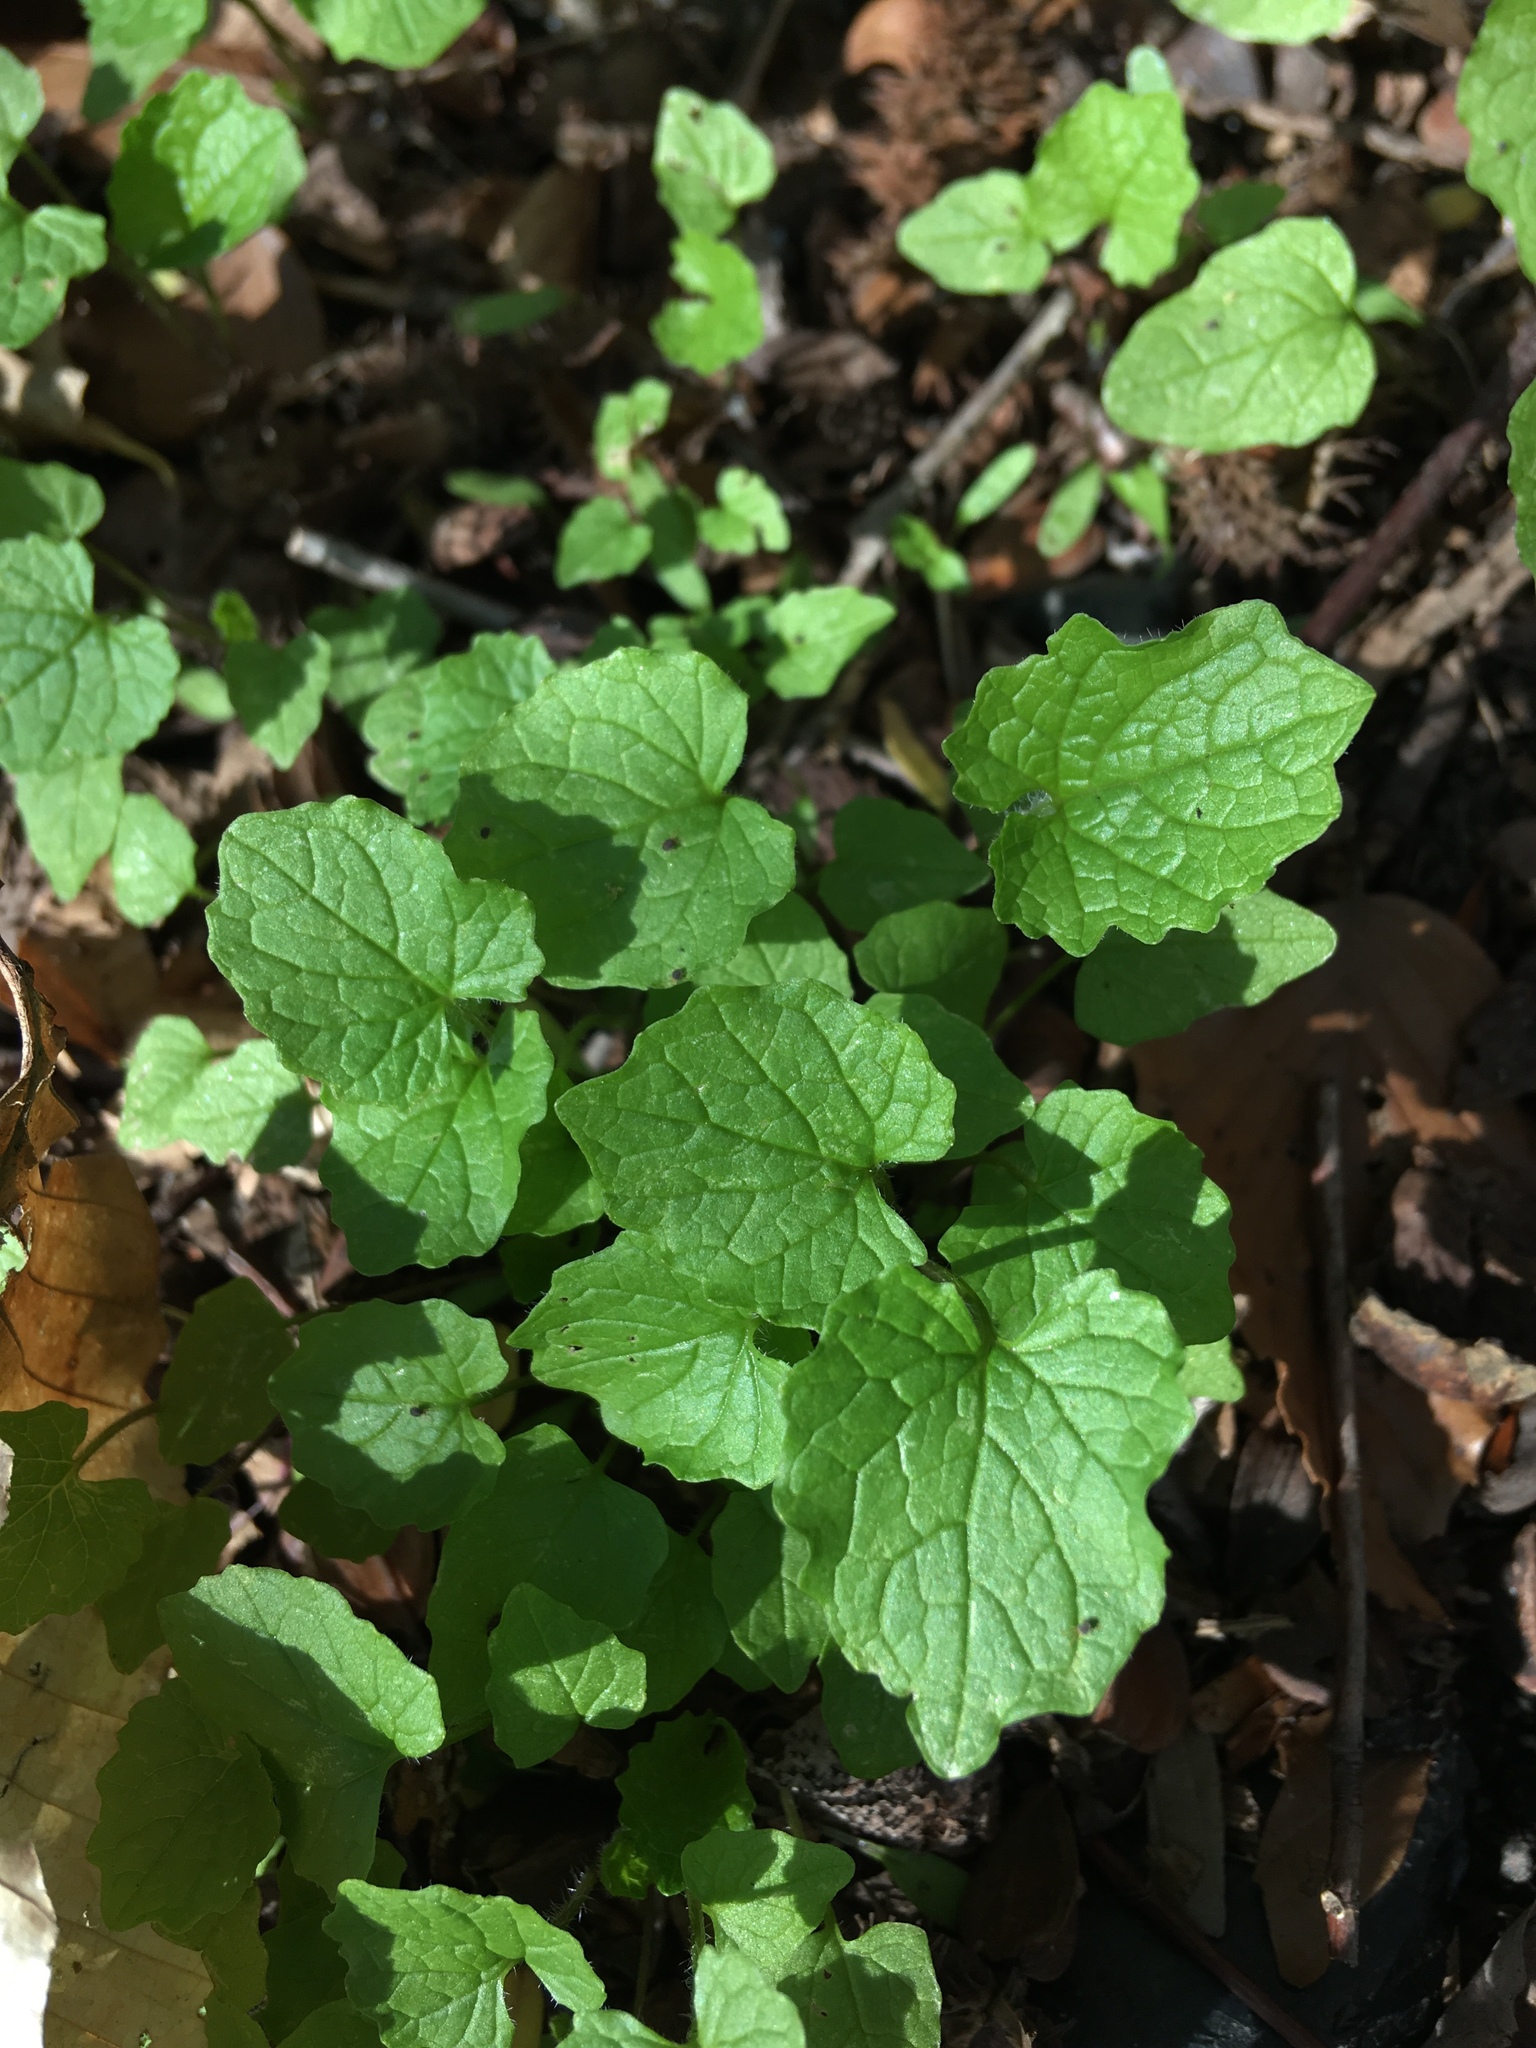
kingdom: Plantae
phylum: Tracheophyta
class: Magnoliopsida
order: Brassicales
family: Brassicaceae
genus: Alliaria
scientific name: Alliaria petiolata
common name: Garlic mustard
